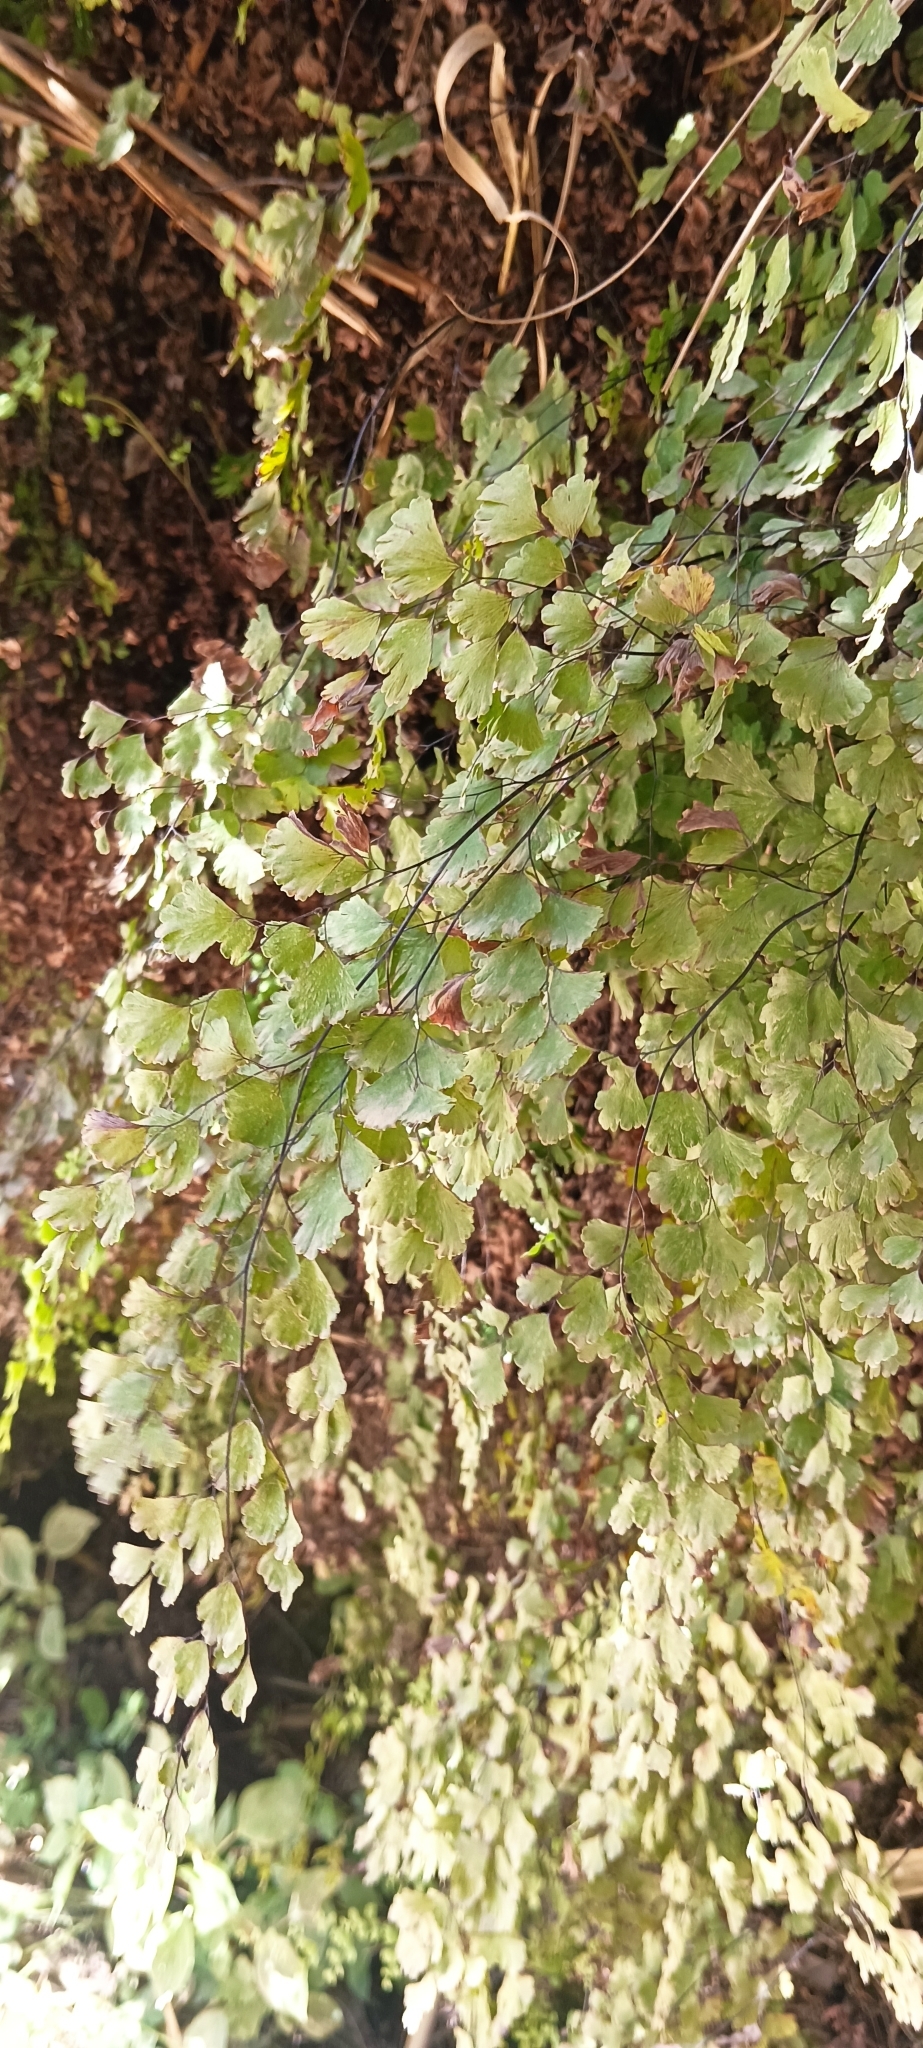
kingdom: Plantae
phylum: Tracheophyta
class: Polypodiopsida
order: Polypodiales
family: Pteridaceae
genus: Adiantum
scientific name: Adiantum capillus-veneris
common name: Maidenhair fern
